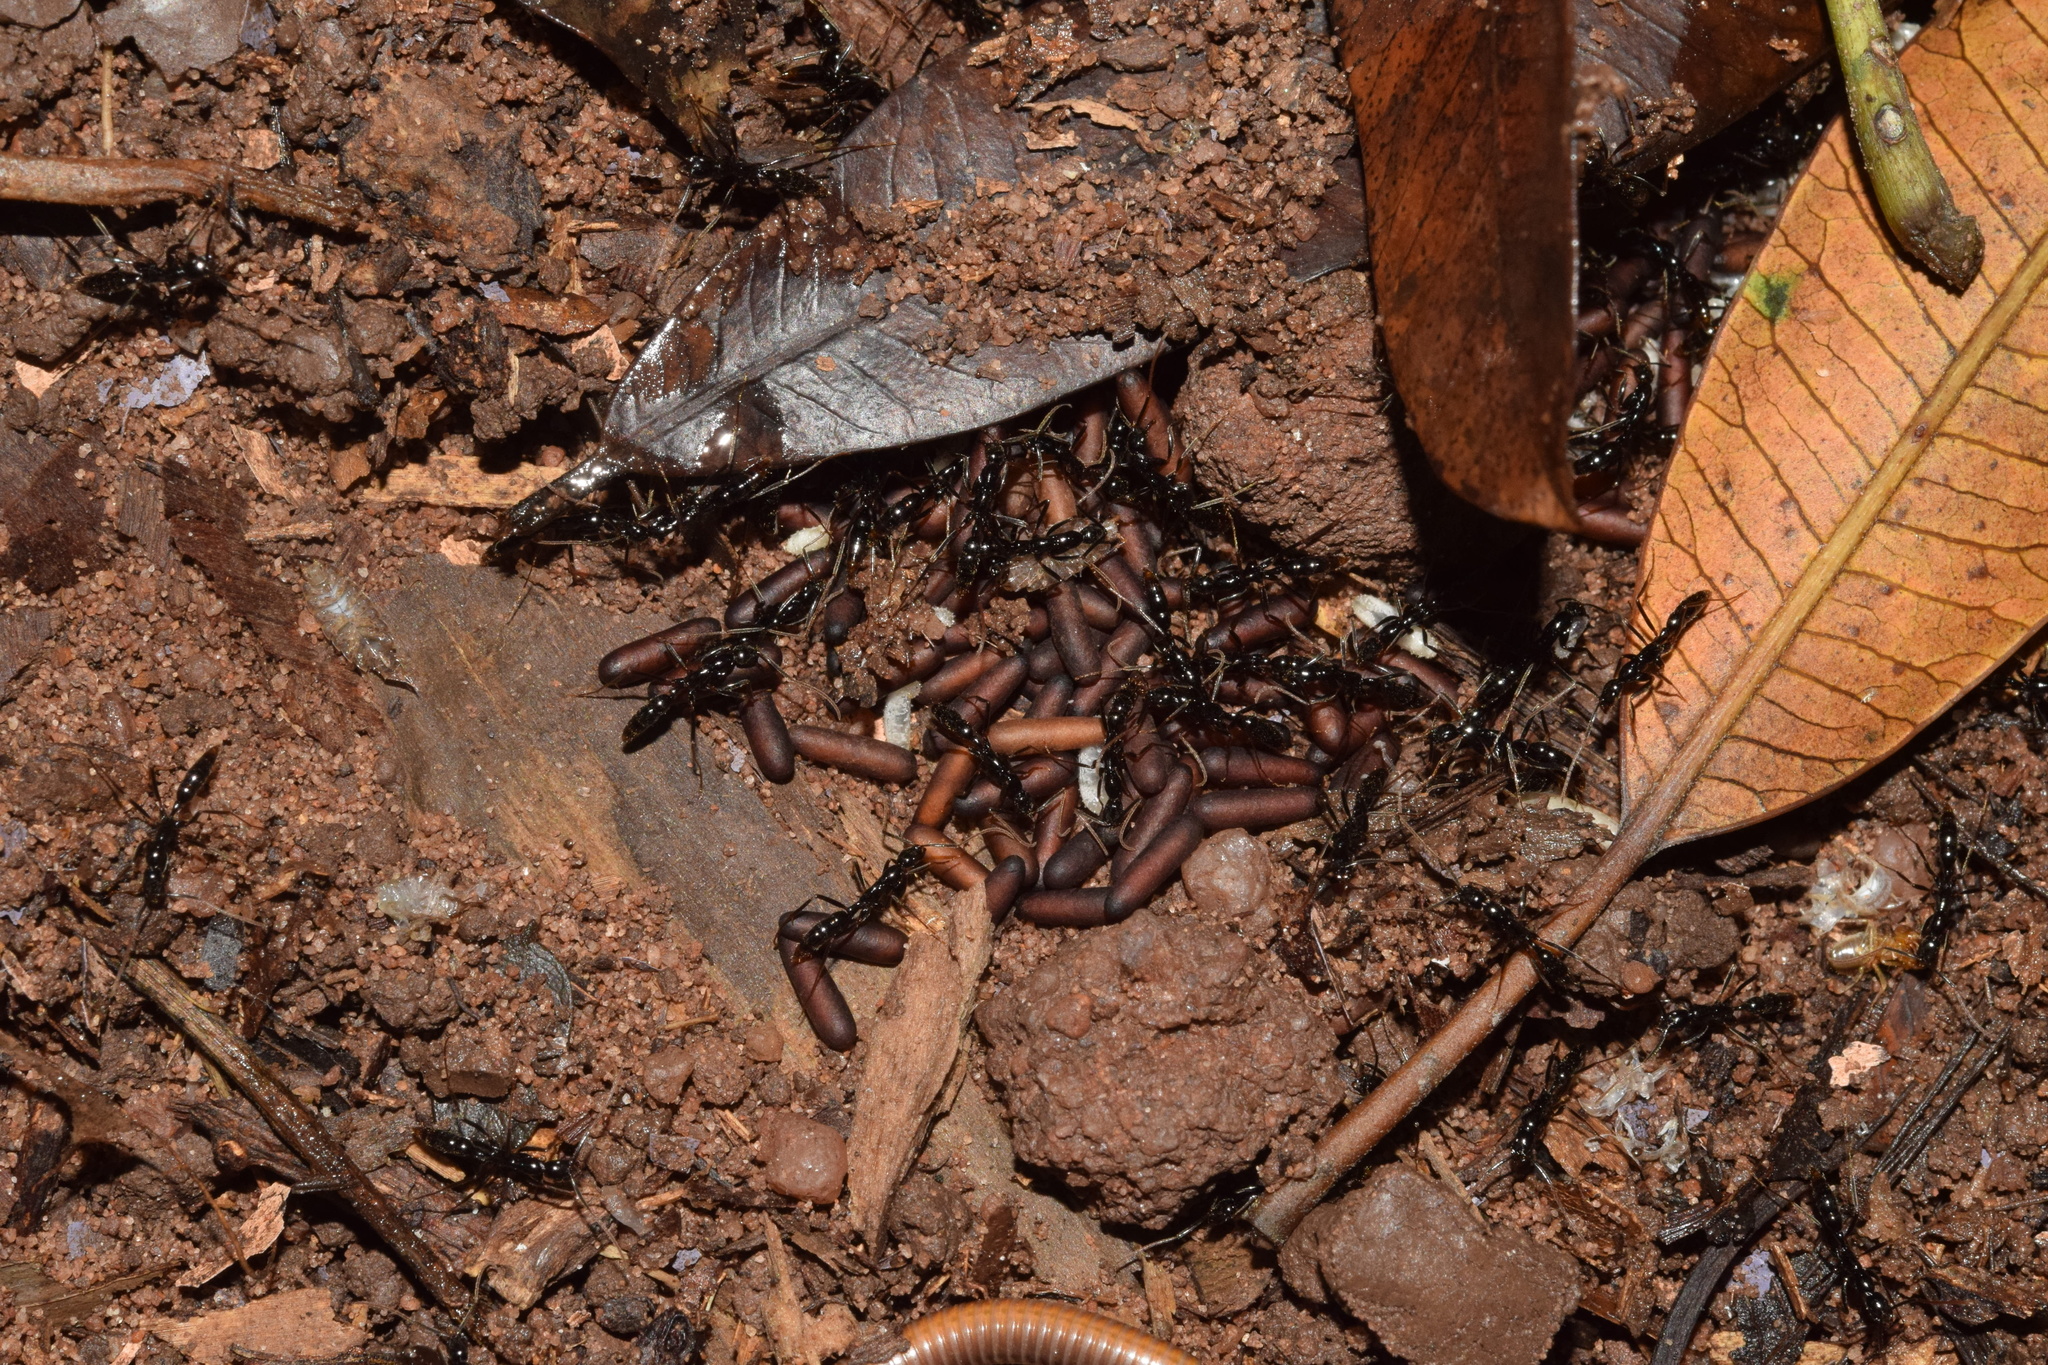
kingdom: Animalia
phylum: Arthropoda
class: Insecta
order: Hymenoptera
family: Formicidae
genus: Leptogenys
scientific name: Leptogenys attenuata
